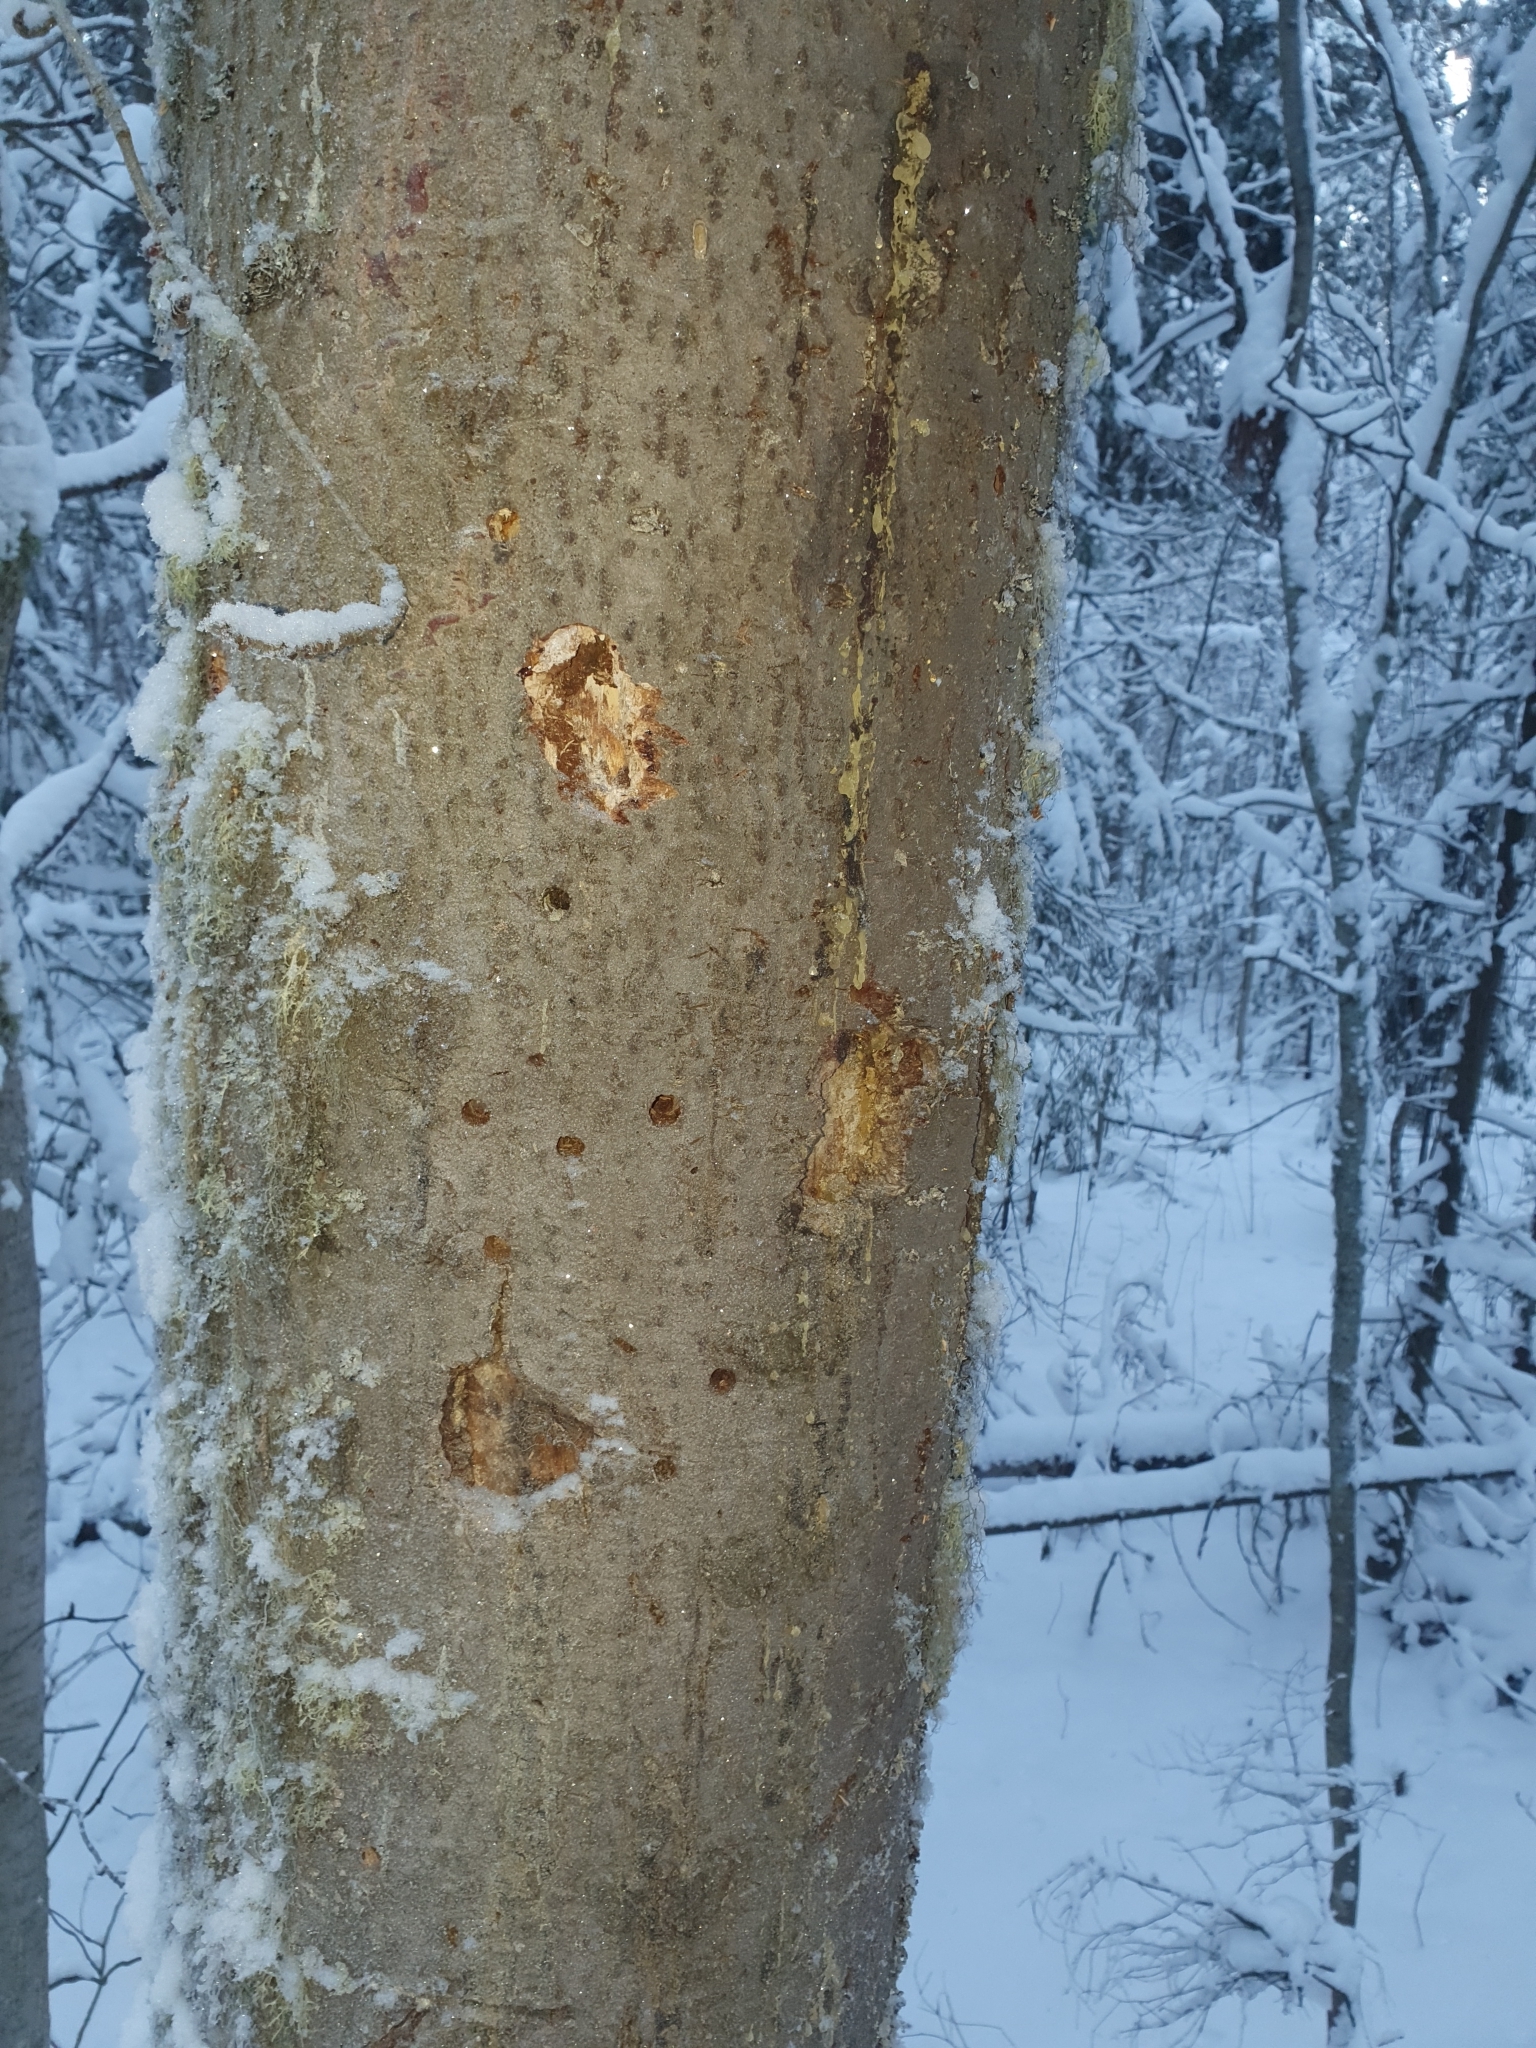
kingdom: Plantae
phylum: Tracheophyta
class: Pinopsida
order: Pinales
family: Pinaceae
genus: Abies
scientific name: Abies sibirica
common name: Siberian fir
